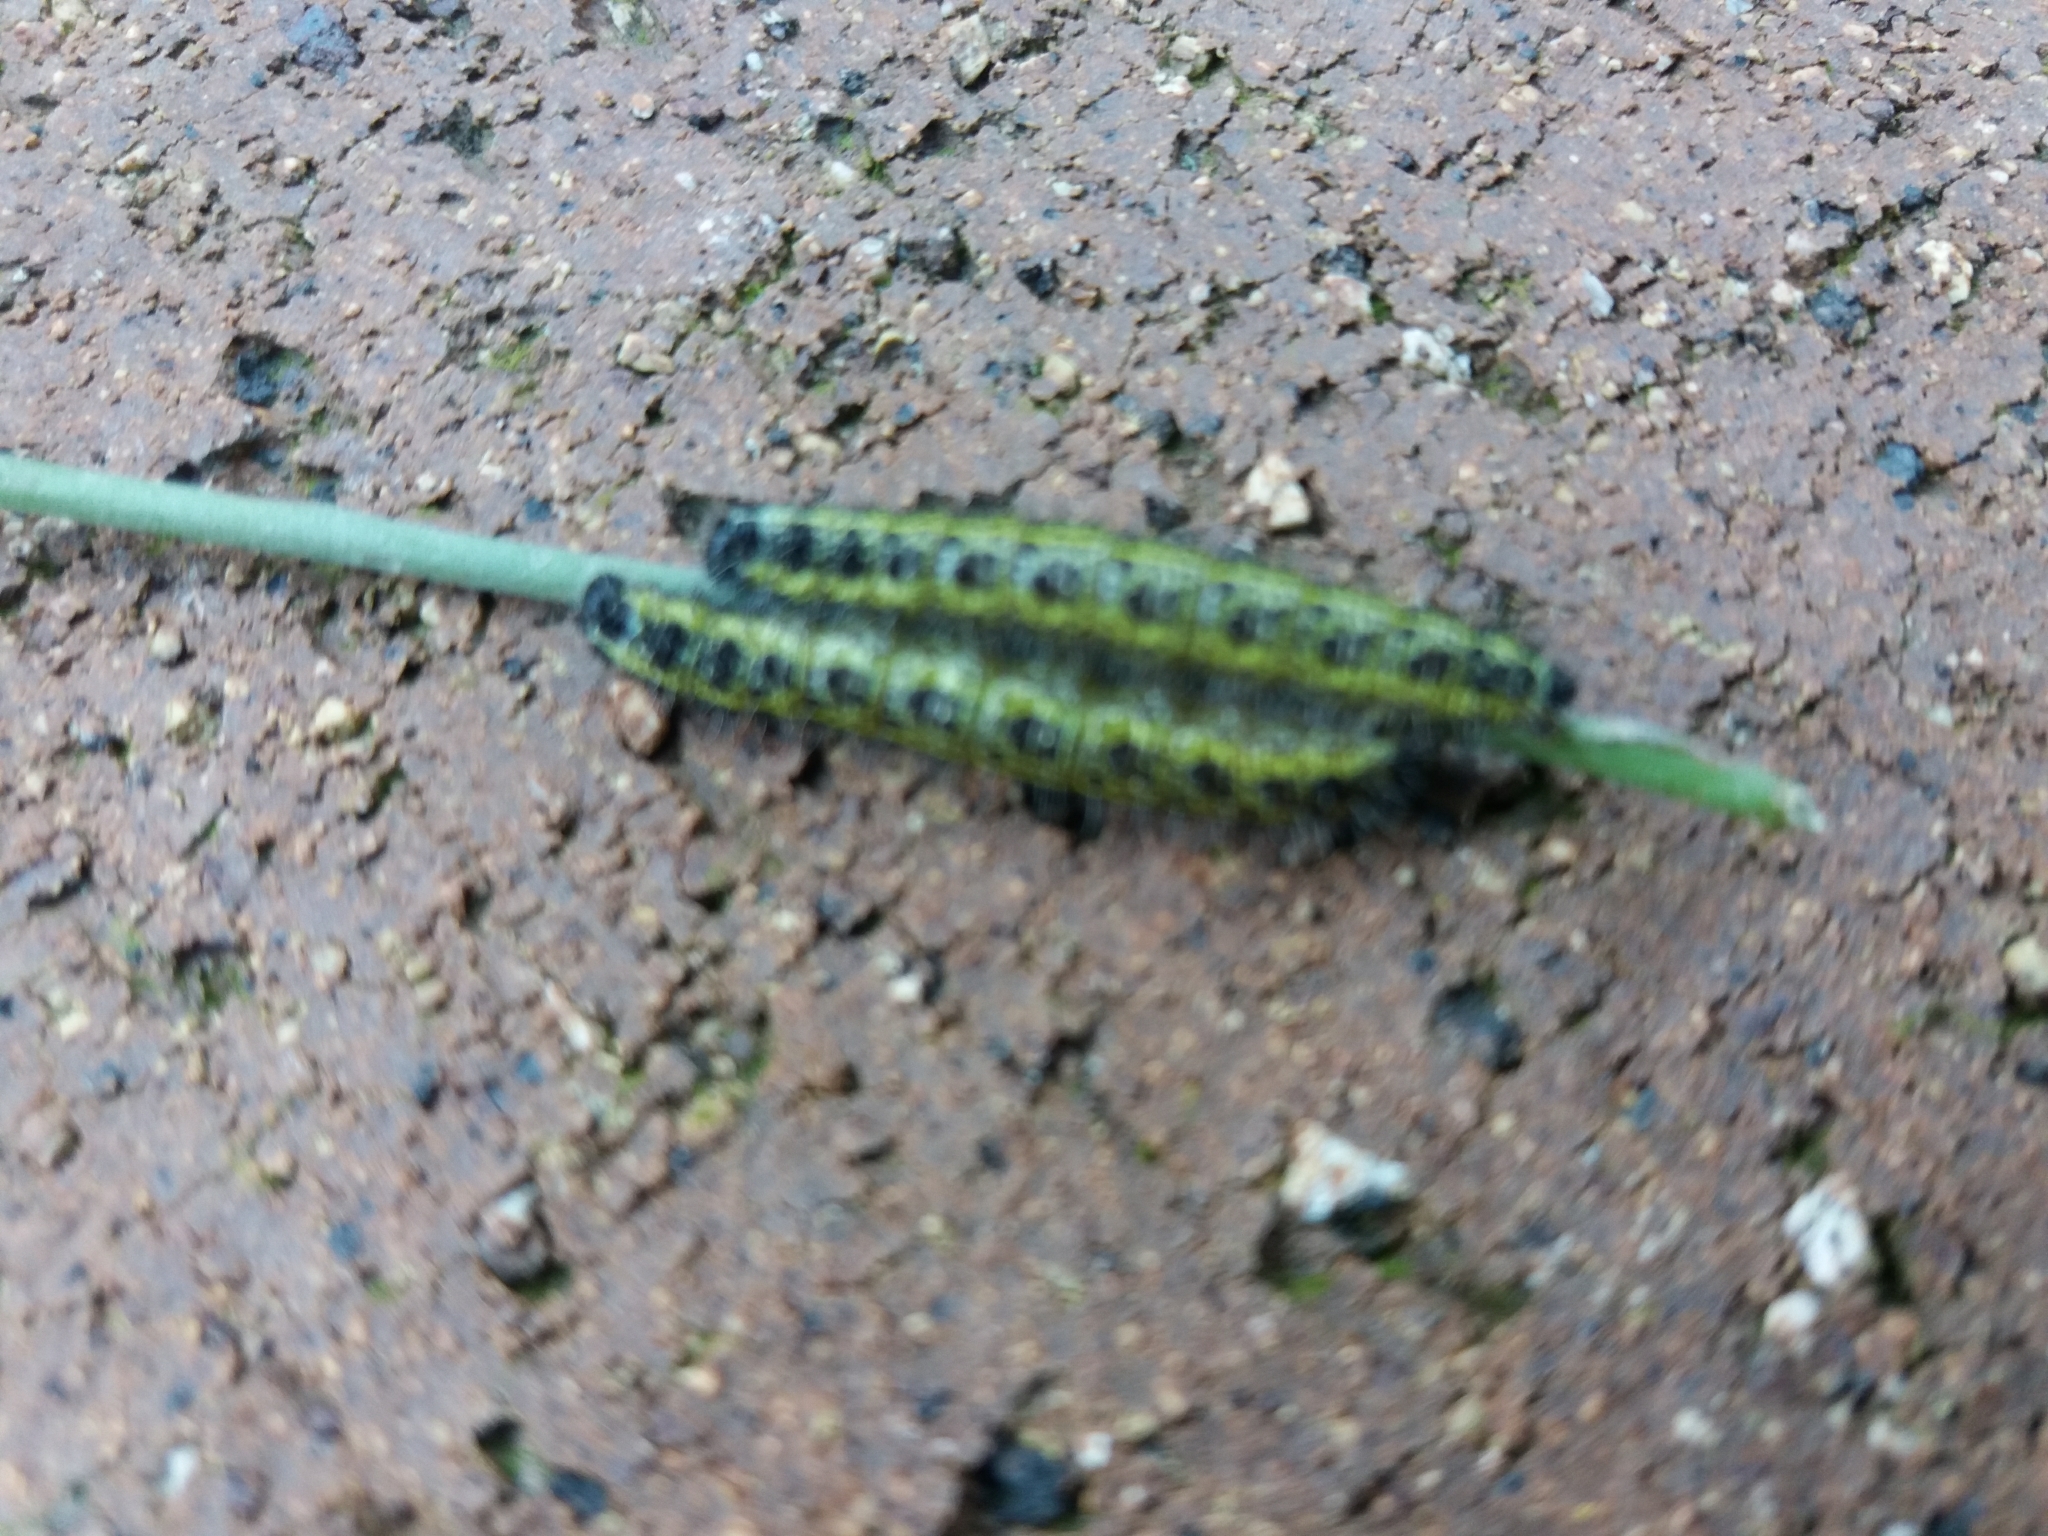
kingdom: Animalia
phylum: Arthropoda
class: Insecta
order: Lepidoptera
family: Pieridae
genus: Pieris
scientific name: Pieris brassicae
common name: Large white
